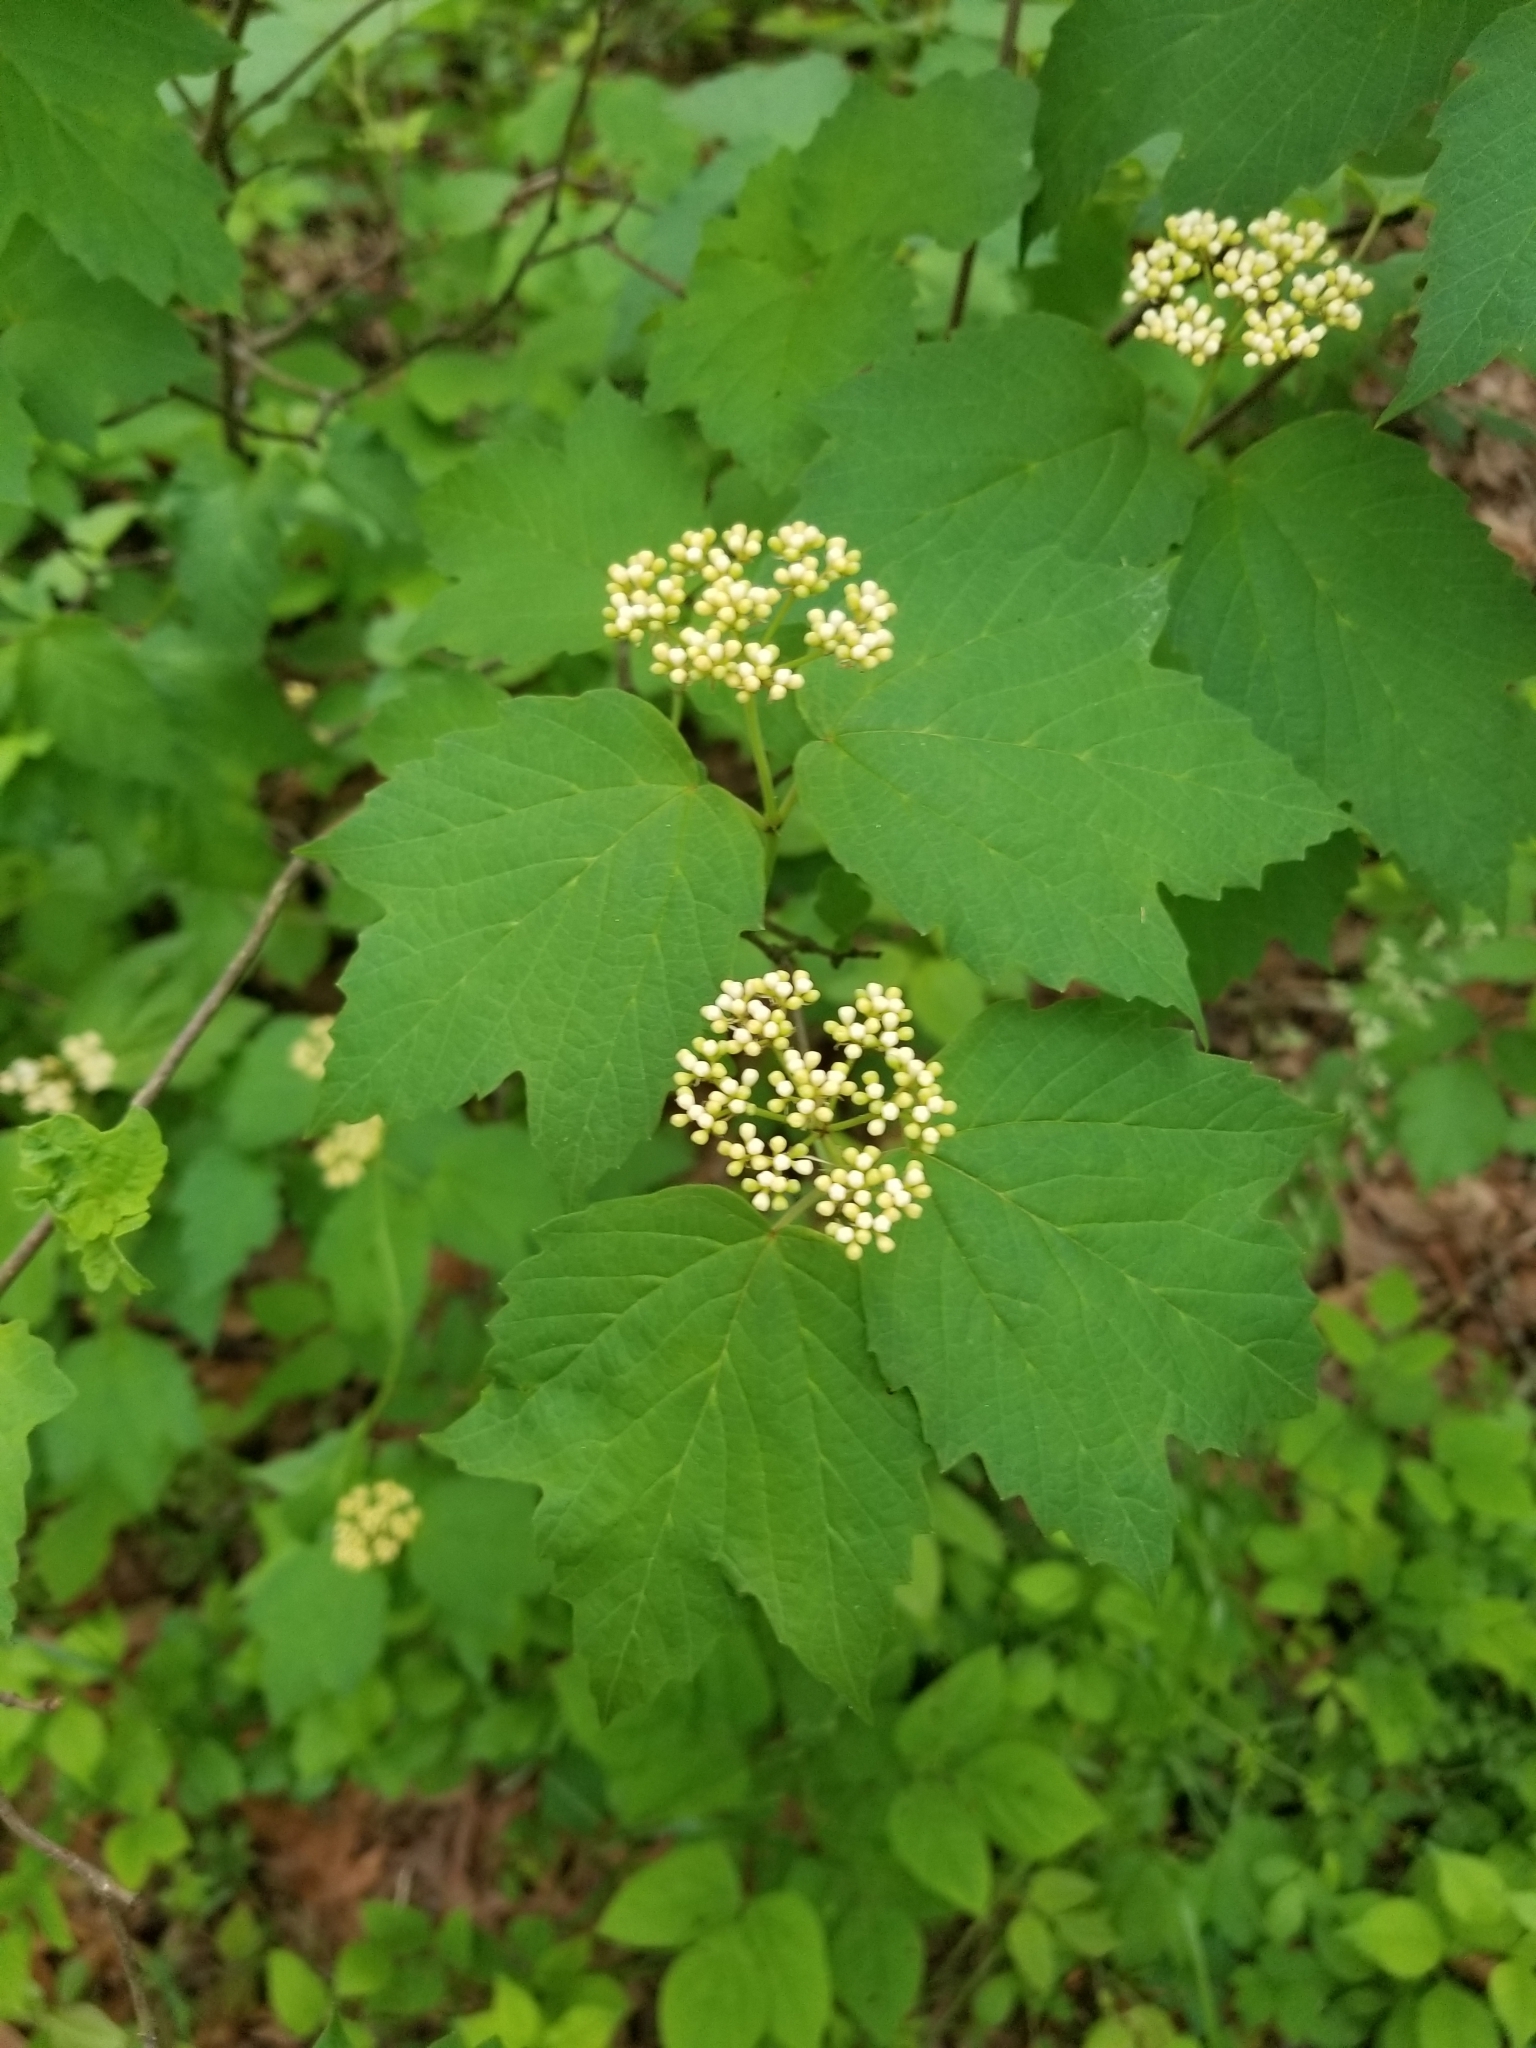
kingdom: Plantae
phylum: Tracheophyta
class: Magnoliopsida
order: Dipsacales
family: Viburnaceae
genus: Viburnum
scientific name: Viburnum acerifolium
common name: Dockmackie
